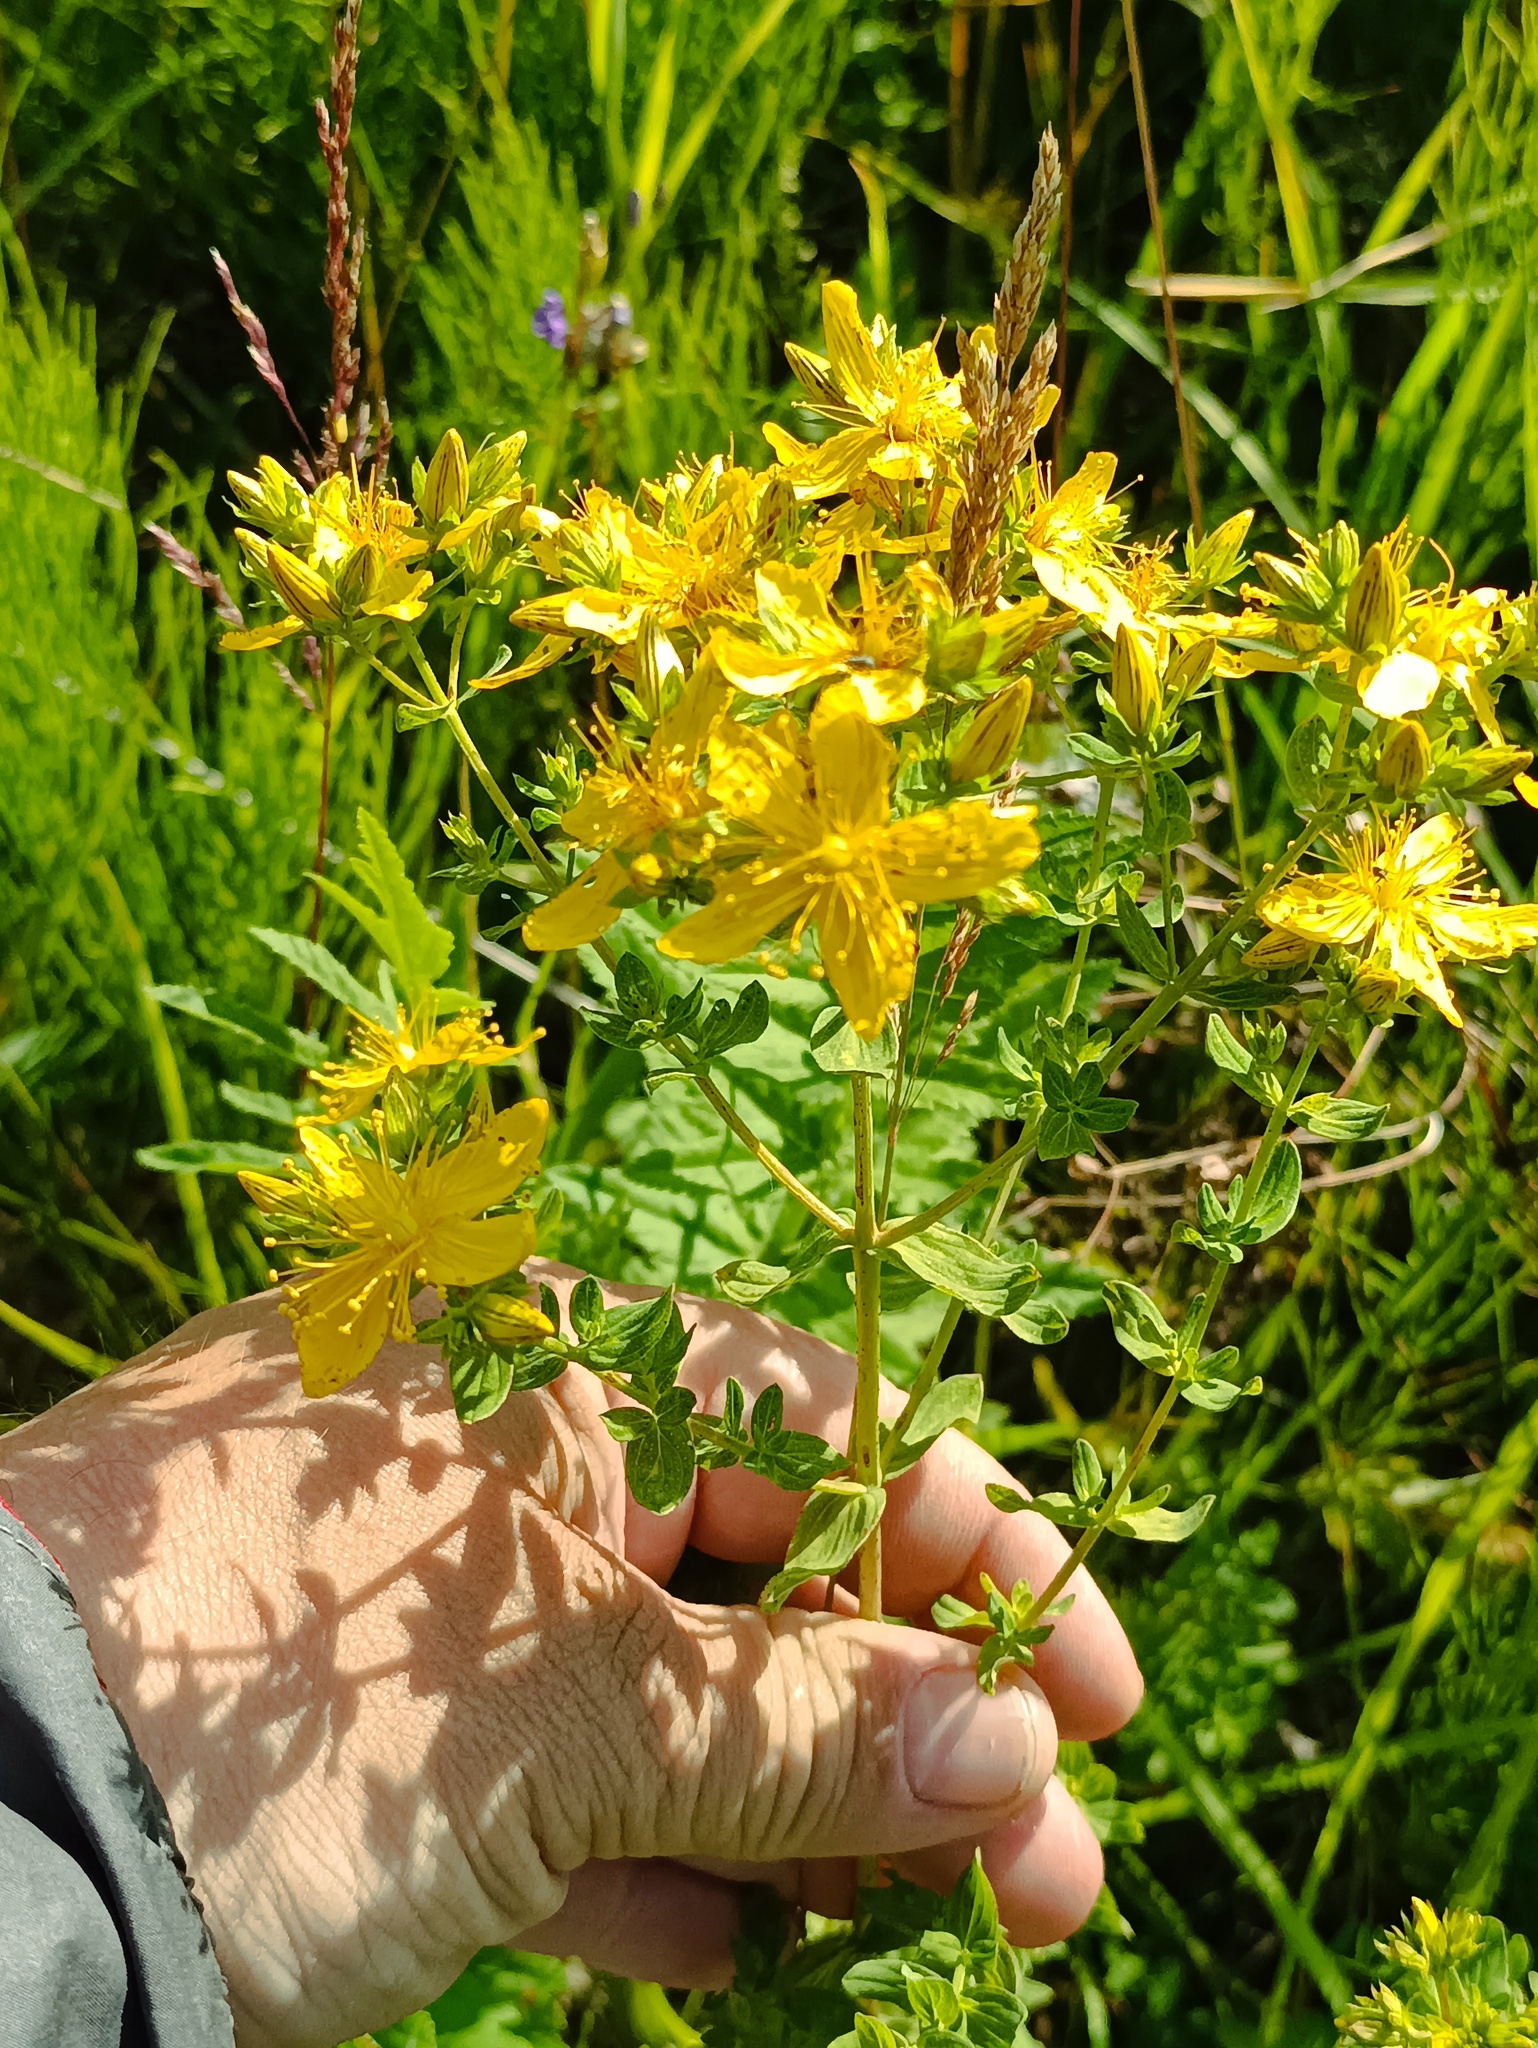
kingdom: Plantae
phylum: Tracheophyta
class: Magnoliopsida
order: Malpighiales
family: Hypericaceae
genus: Hypericum
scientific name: Hypericum perforatum
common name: Common st. johnswort
